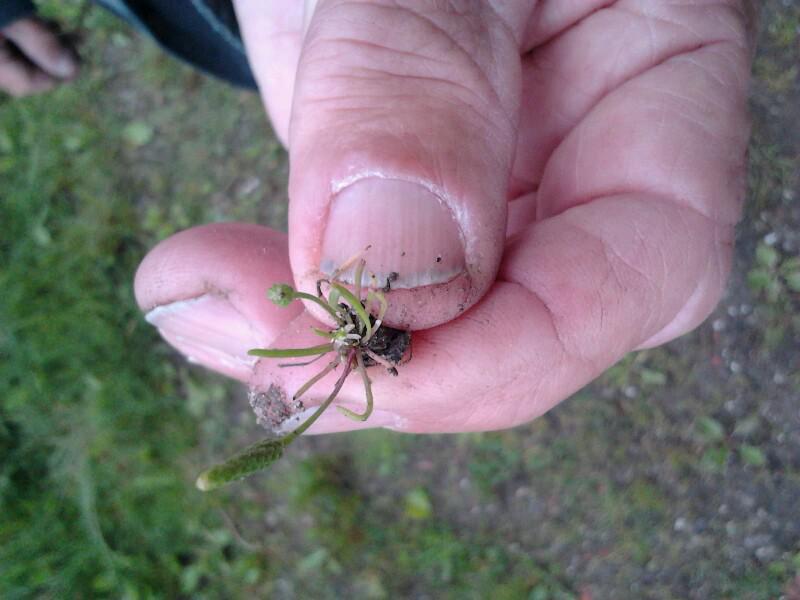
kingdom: Plantae
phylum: Tracheophyta
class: Magnoliopsida
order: Ranunculales
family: Ranunculaceae
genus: Myosurus
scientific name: Myosurus minimus
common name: Mousetail
